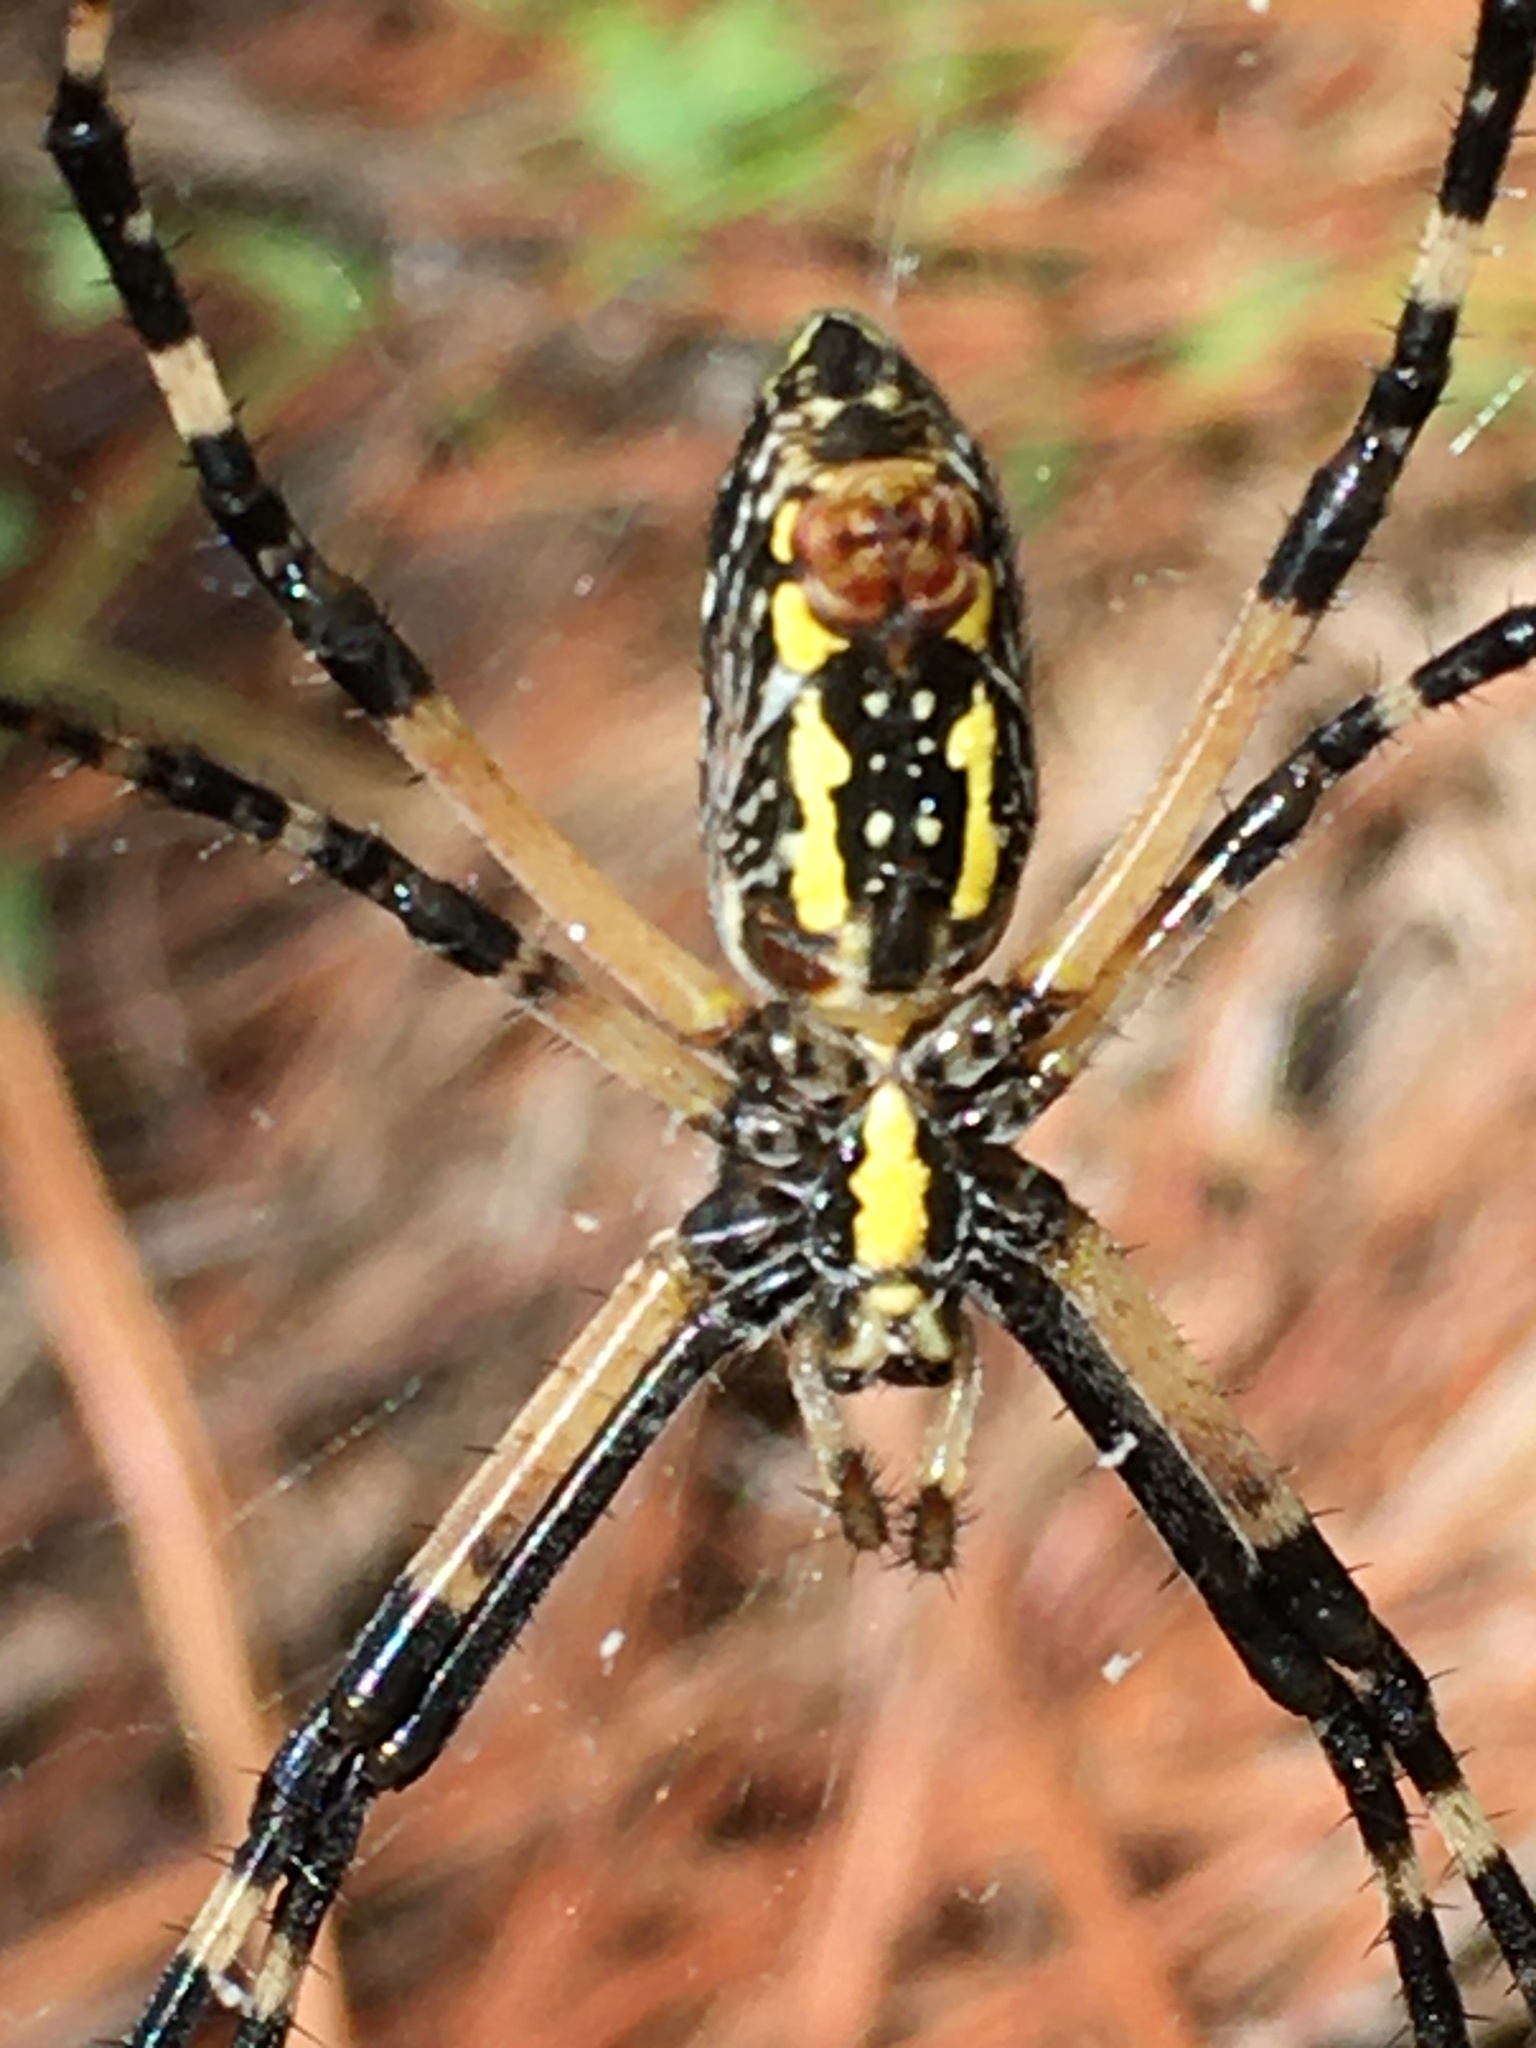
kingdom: Animalia
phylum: Arthropoda
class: Arachnida
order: Araneae
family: Araneidae
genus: Argiope
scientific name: Argiope aurantia
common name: Orb weavers
